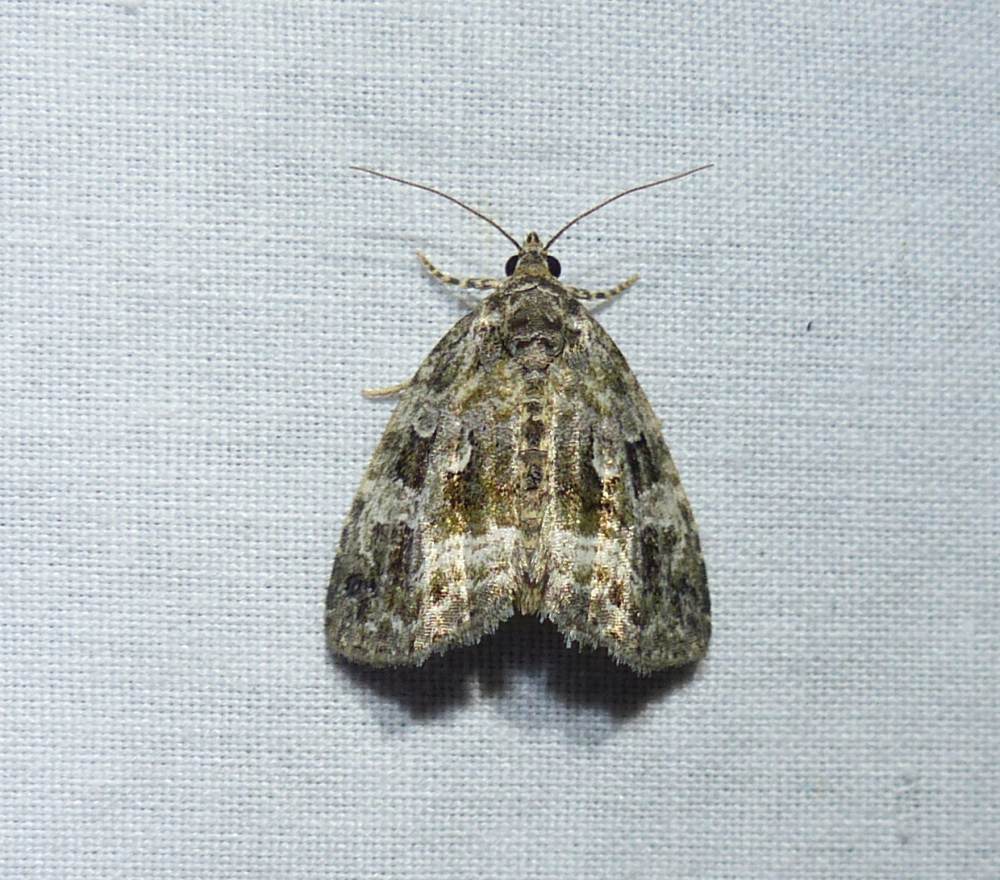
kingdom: Animalia
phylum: Arthropoda
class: Insecta
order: Lepidoptera
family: Noctuidae
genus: Protodeltote
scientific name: Protodeltote muscosula
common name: Large mossy glyph
